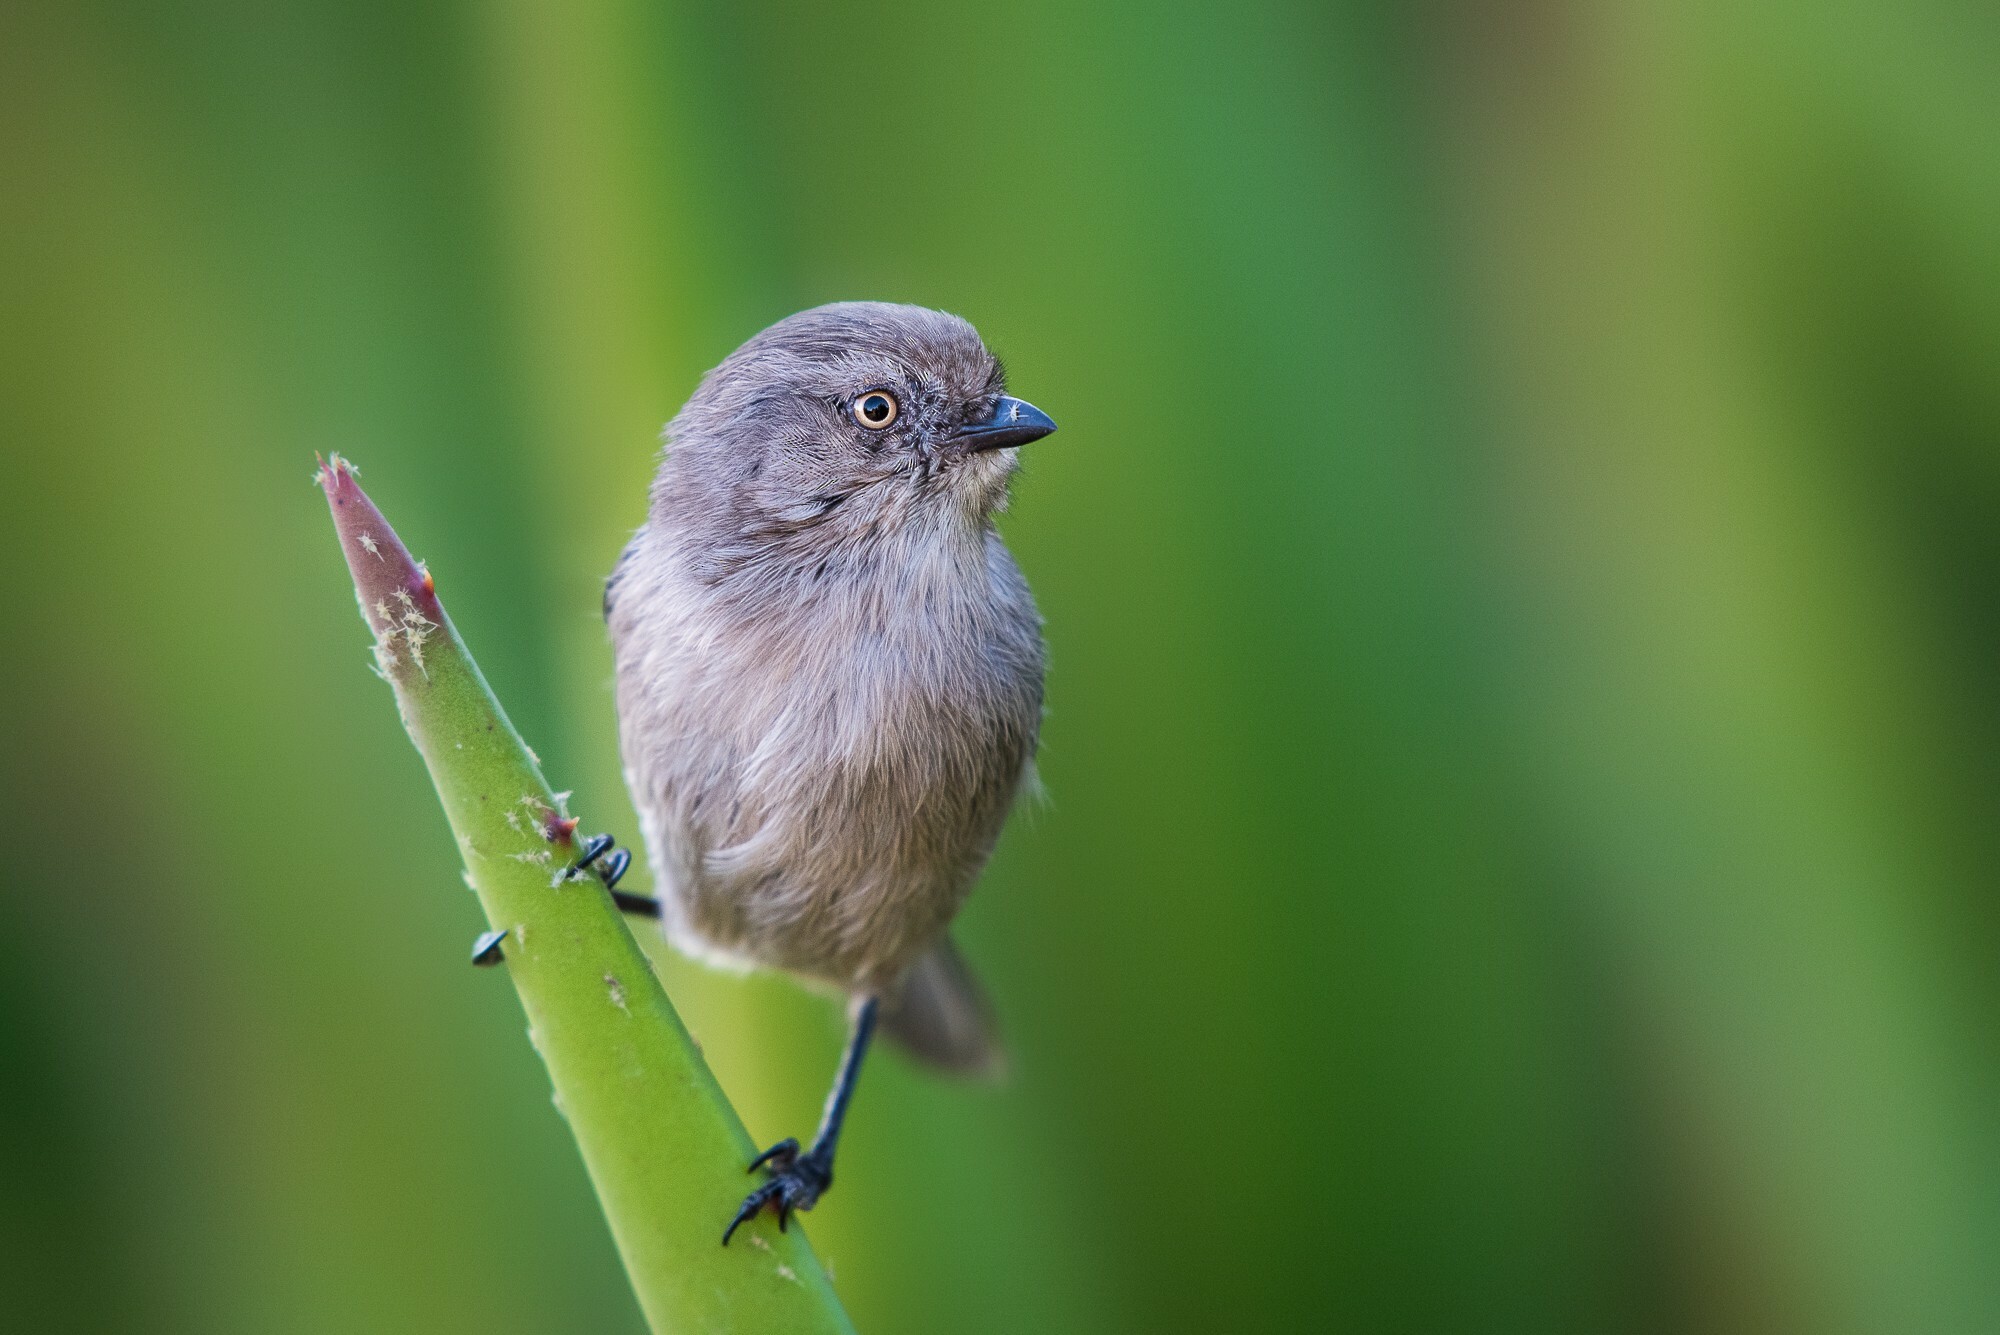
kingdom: Animalia
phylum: Chordata
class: Aves
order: Passeriformes
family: Aegithalidae
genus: Psaltriparus
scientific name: Psaltriparus minimus
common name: American bushtit
